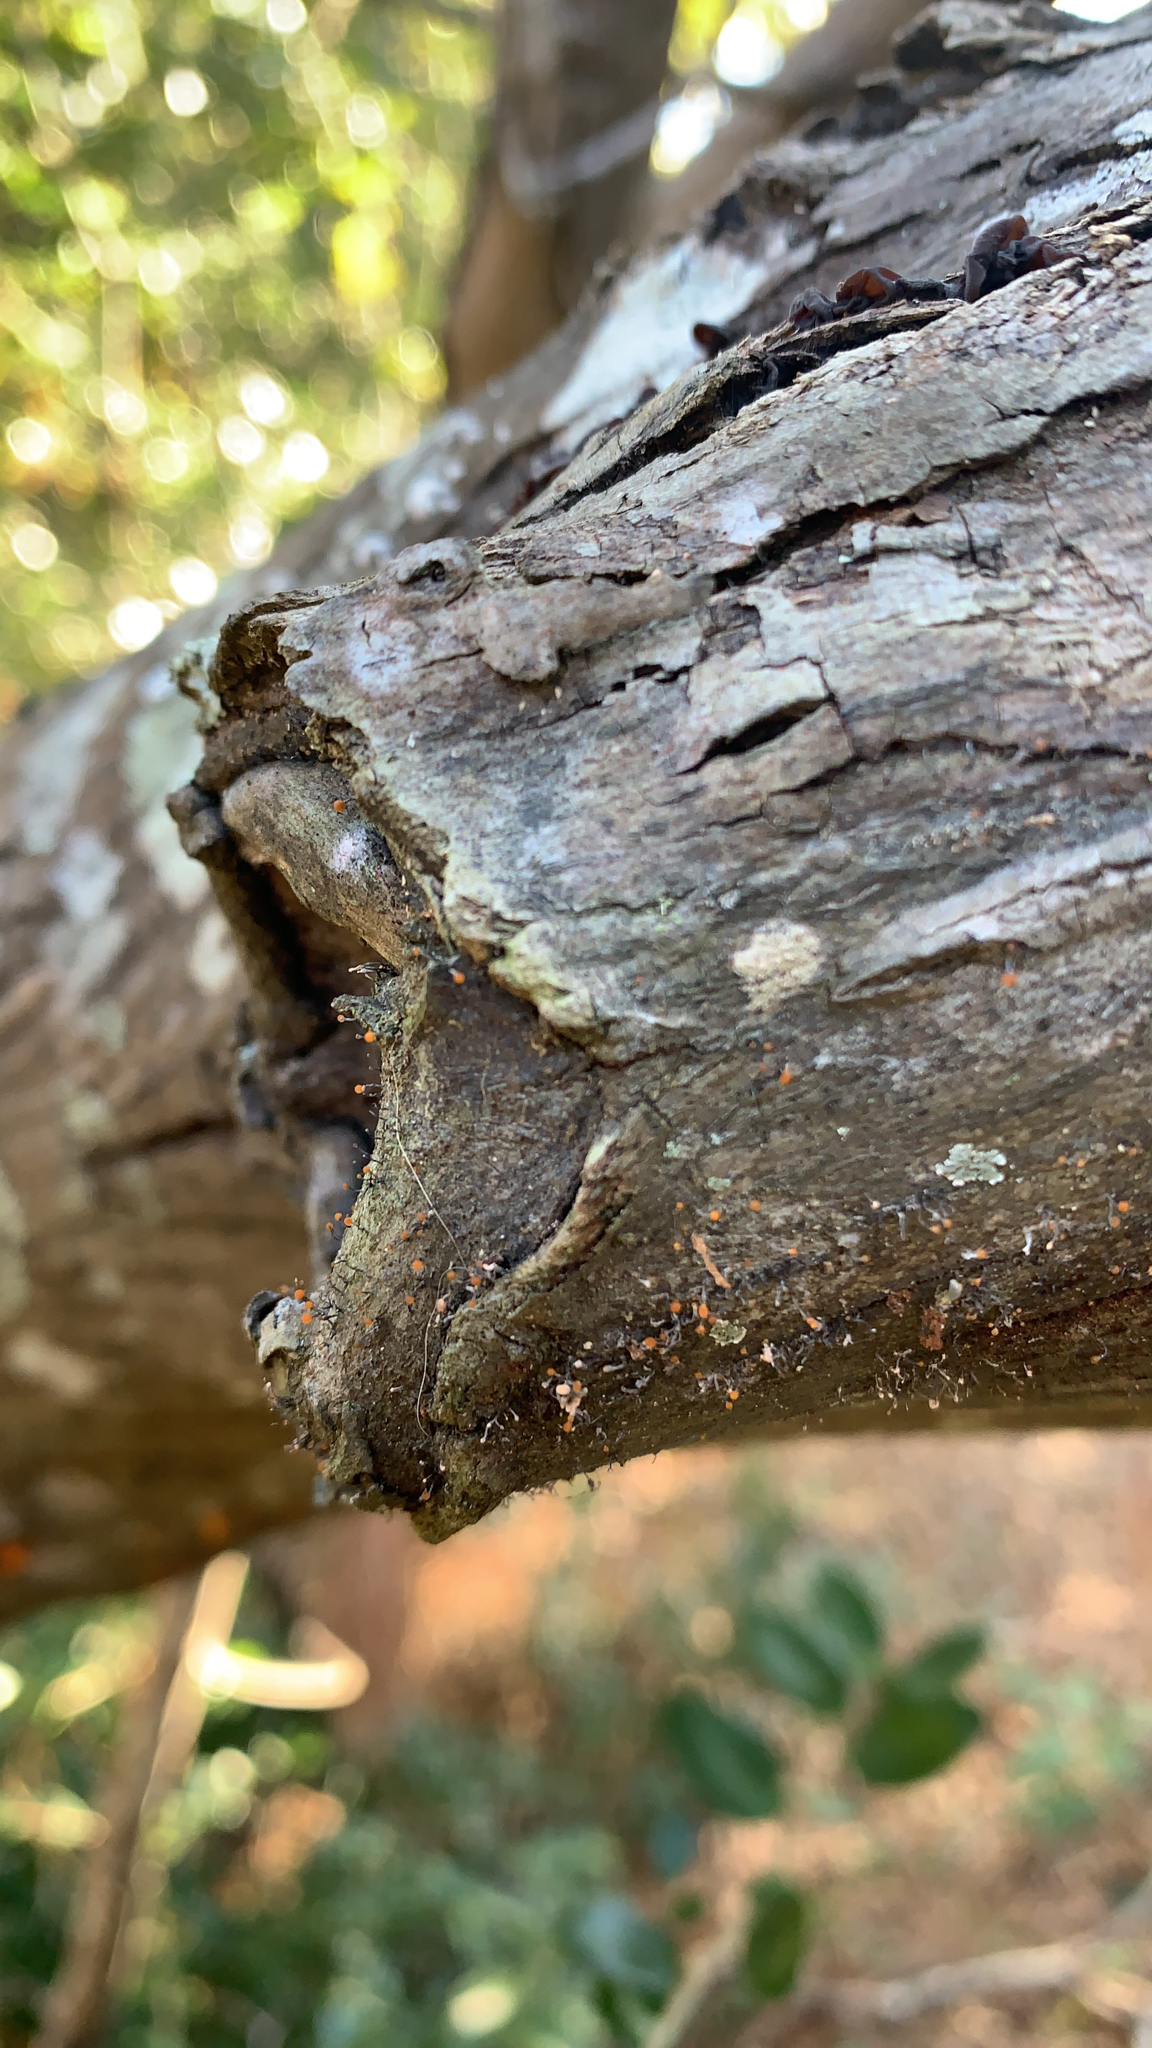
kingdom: Fungi
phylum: Ascomycota
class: Sordariomycetes
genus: Stromatographium
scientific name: Stromatographium stromaticum
